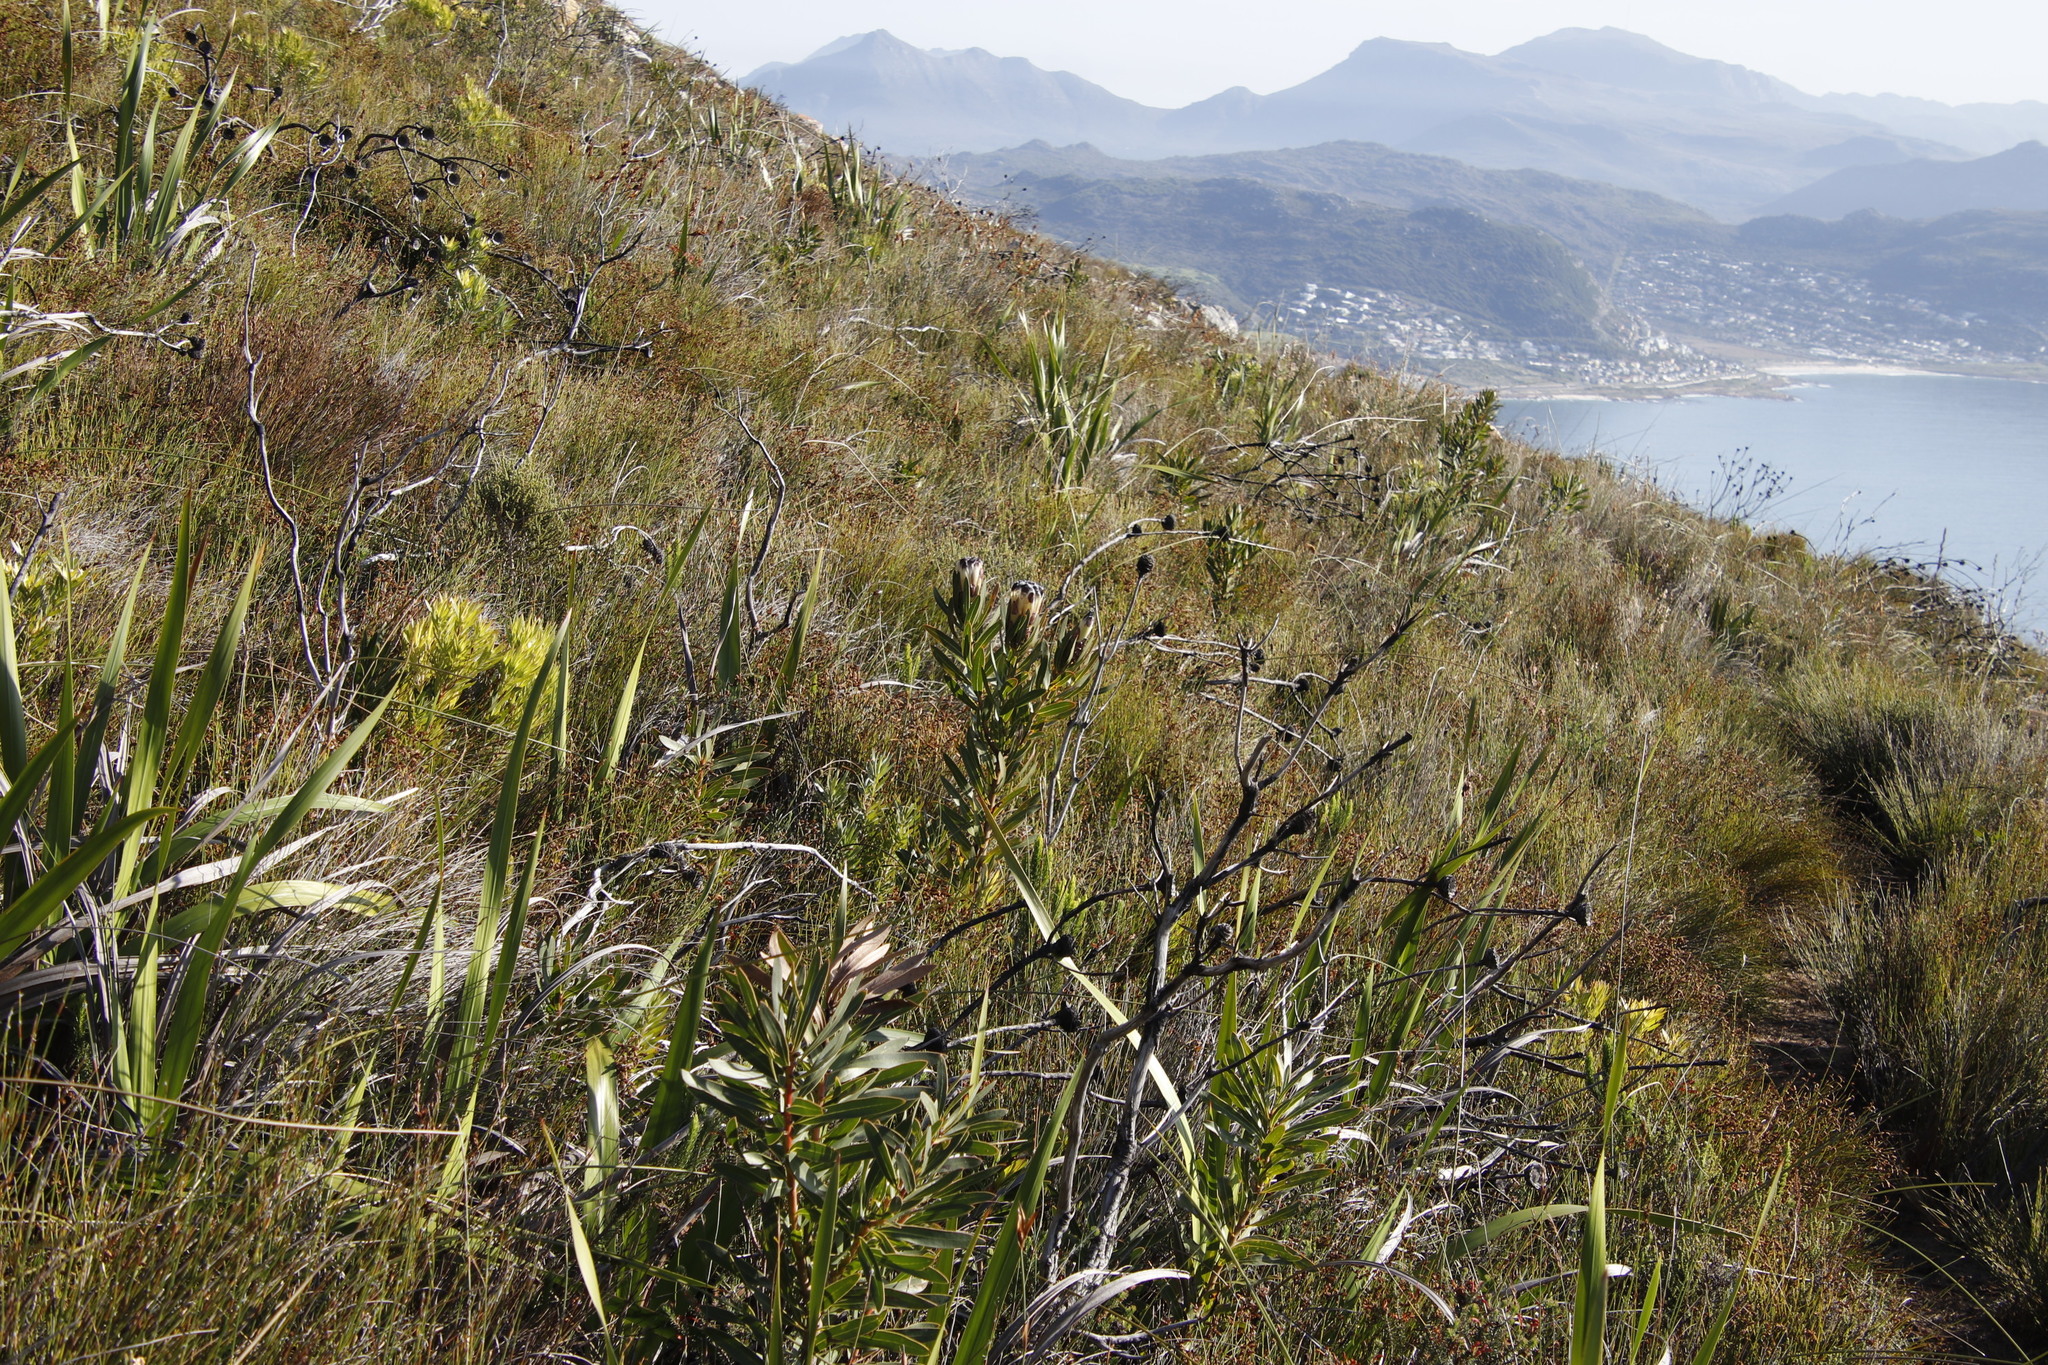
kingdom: Plantae
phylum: Tracheophyta
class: Magnoliopsida
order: Proteales
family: Proteaceae
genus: Protea
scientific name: Protea lepidocarpodendron
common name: Black-bearded protea
